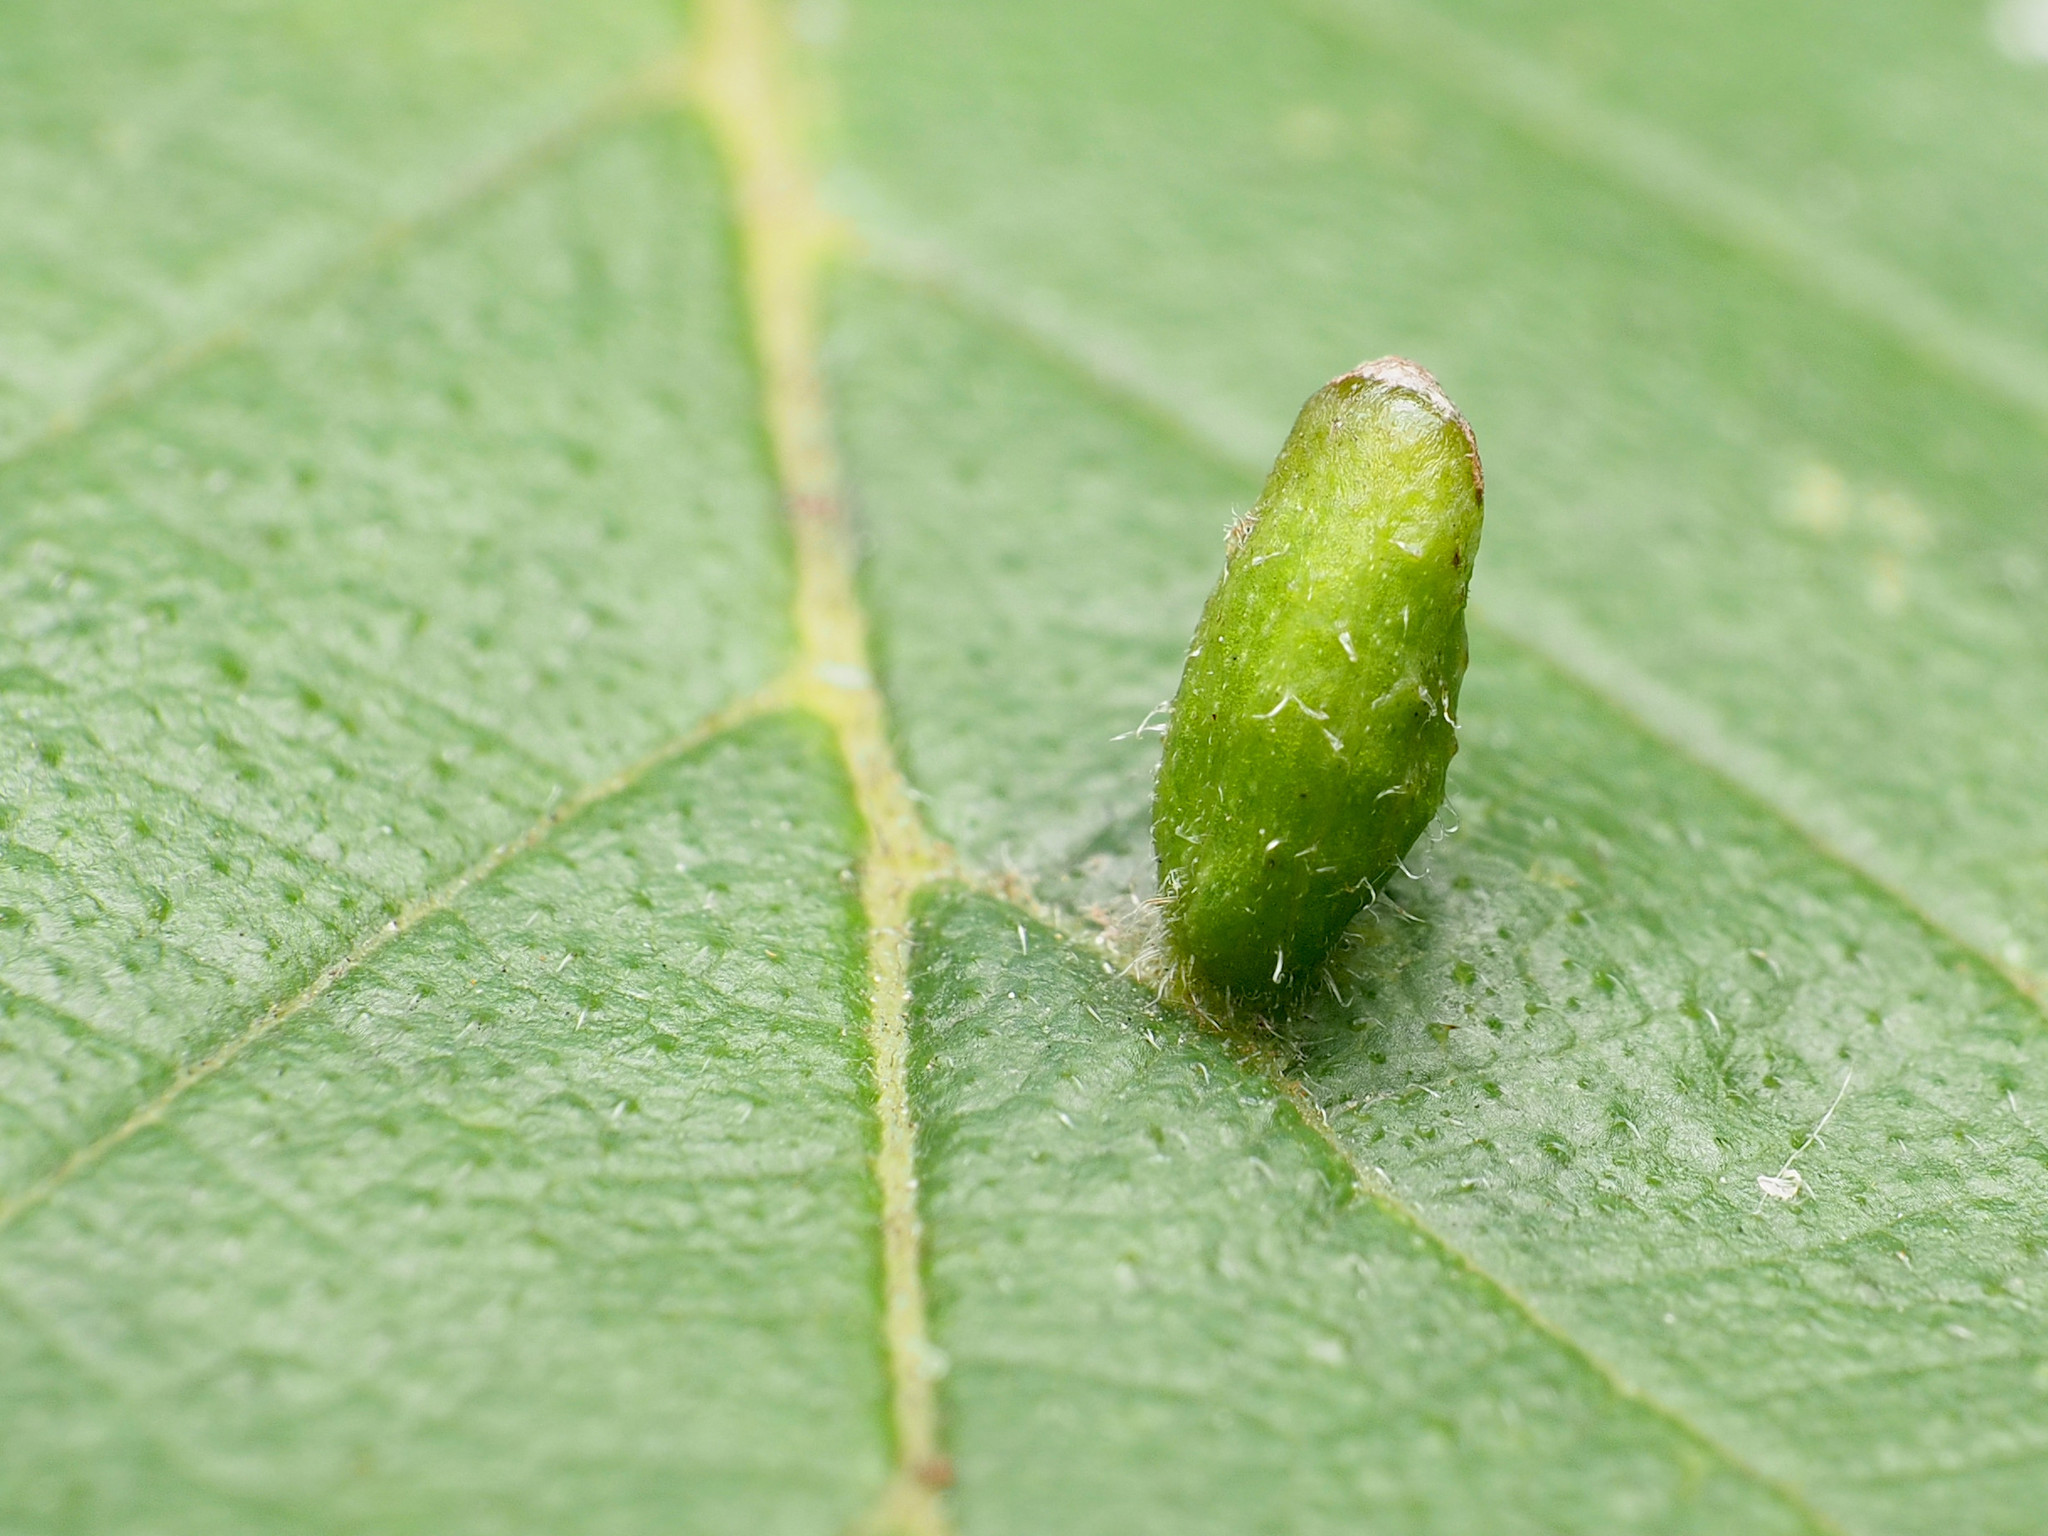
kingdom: Animalia
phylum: Arthropoda
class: Arachnida
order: Trombidiformes
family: Eriophyidae
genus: Aceria
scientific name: Aceria
